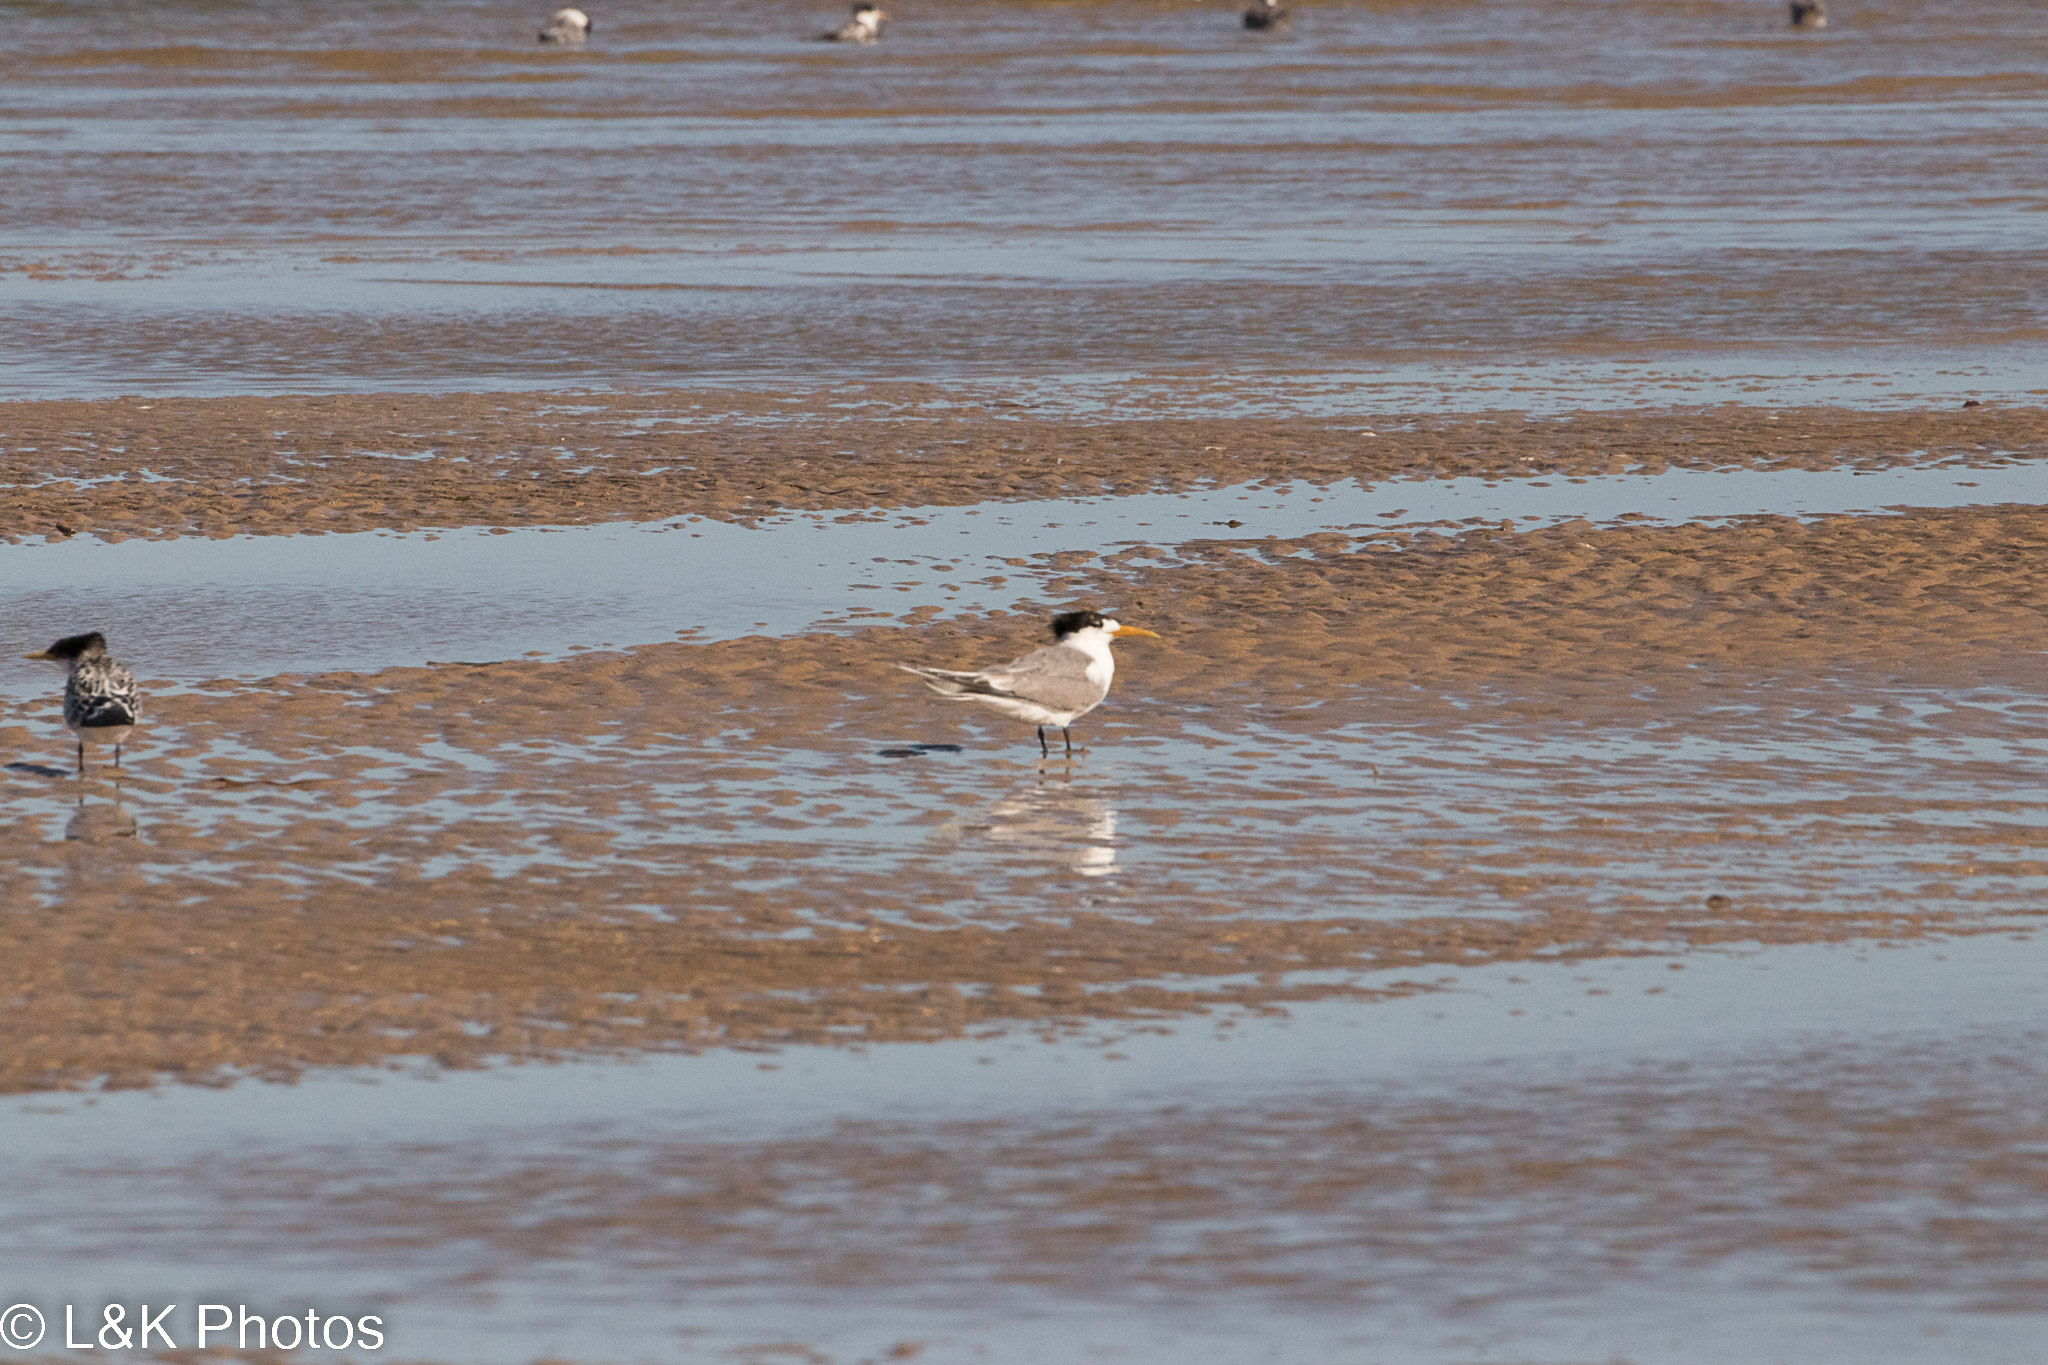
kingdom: Animalia
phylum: Chordata
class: Aves
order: Charadriiformes
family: Laridae
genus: Thalasseus
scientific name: Thalasseus bergii
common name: Greater crested tern
